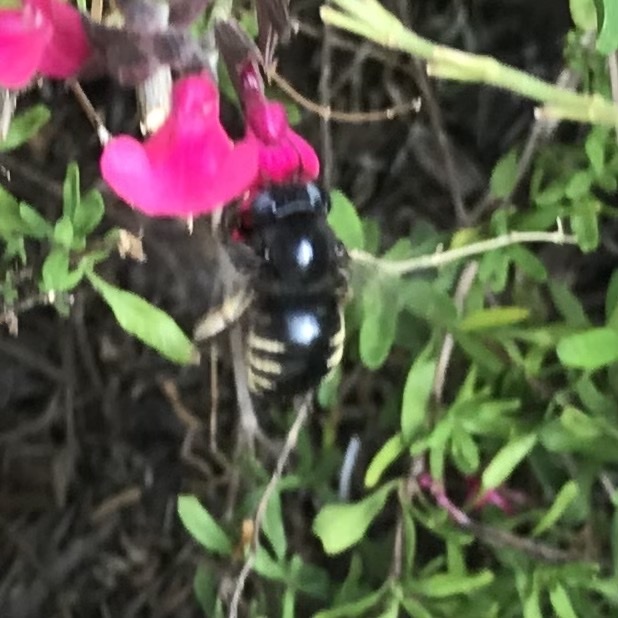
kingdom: Animalia
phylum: Arthropoda
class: Insecta
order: Hymenoptera
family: Apidae
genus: Xylocopa
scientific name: Xylocopa tabaniformis
